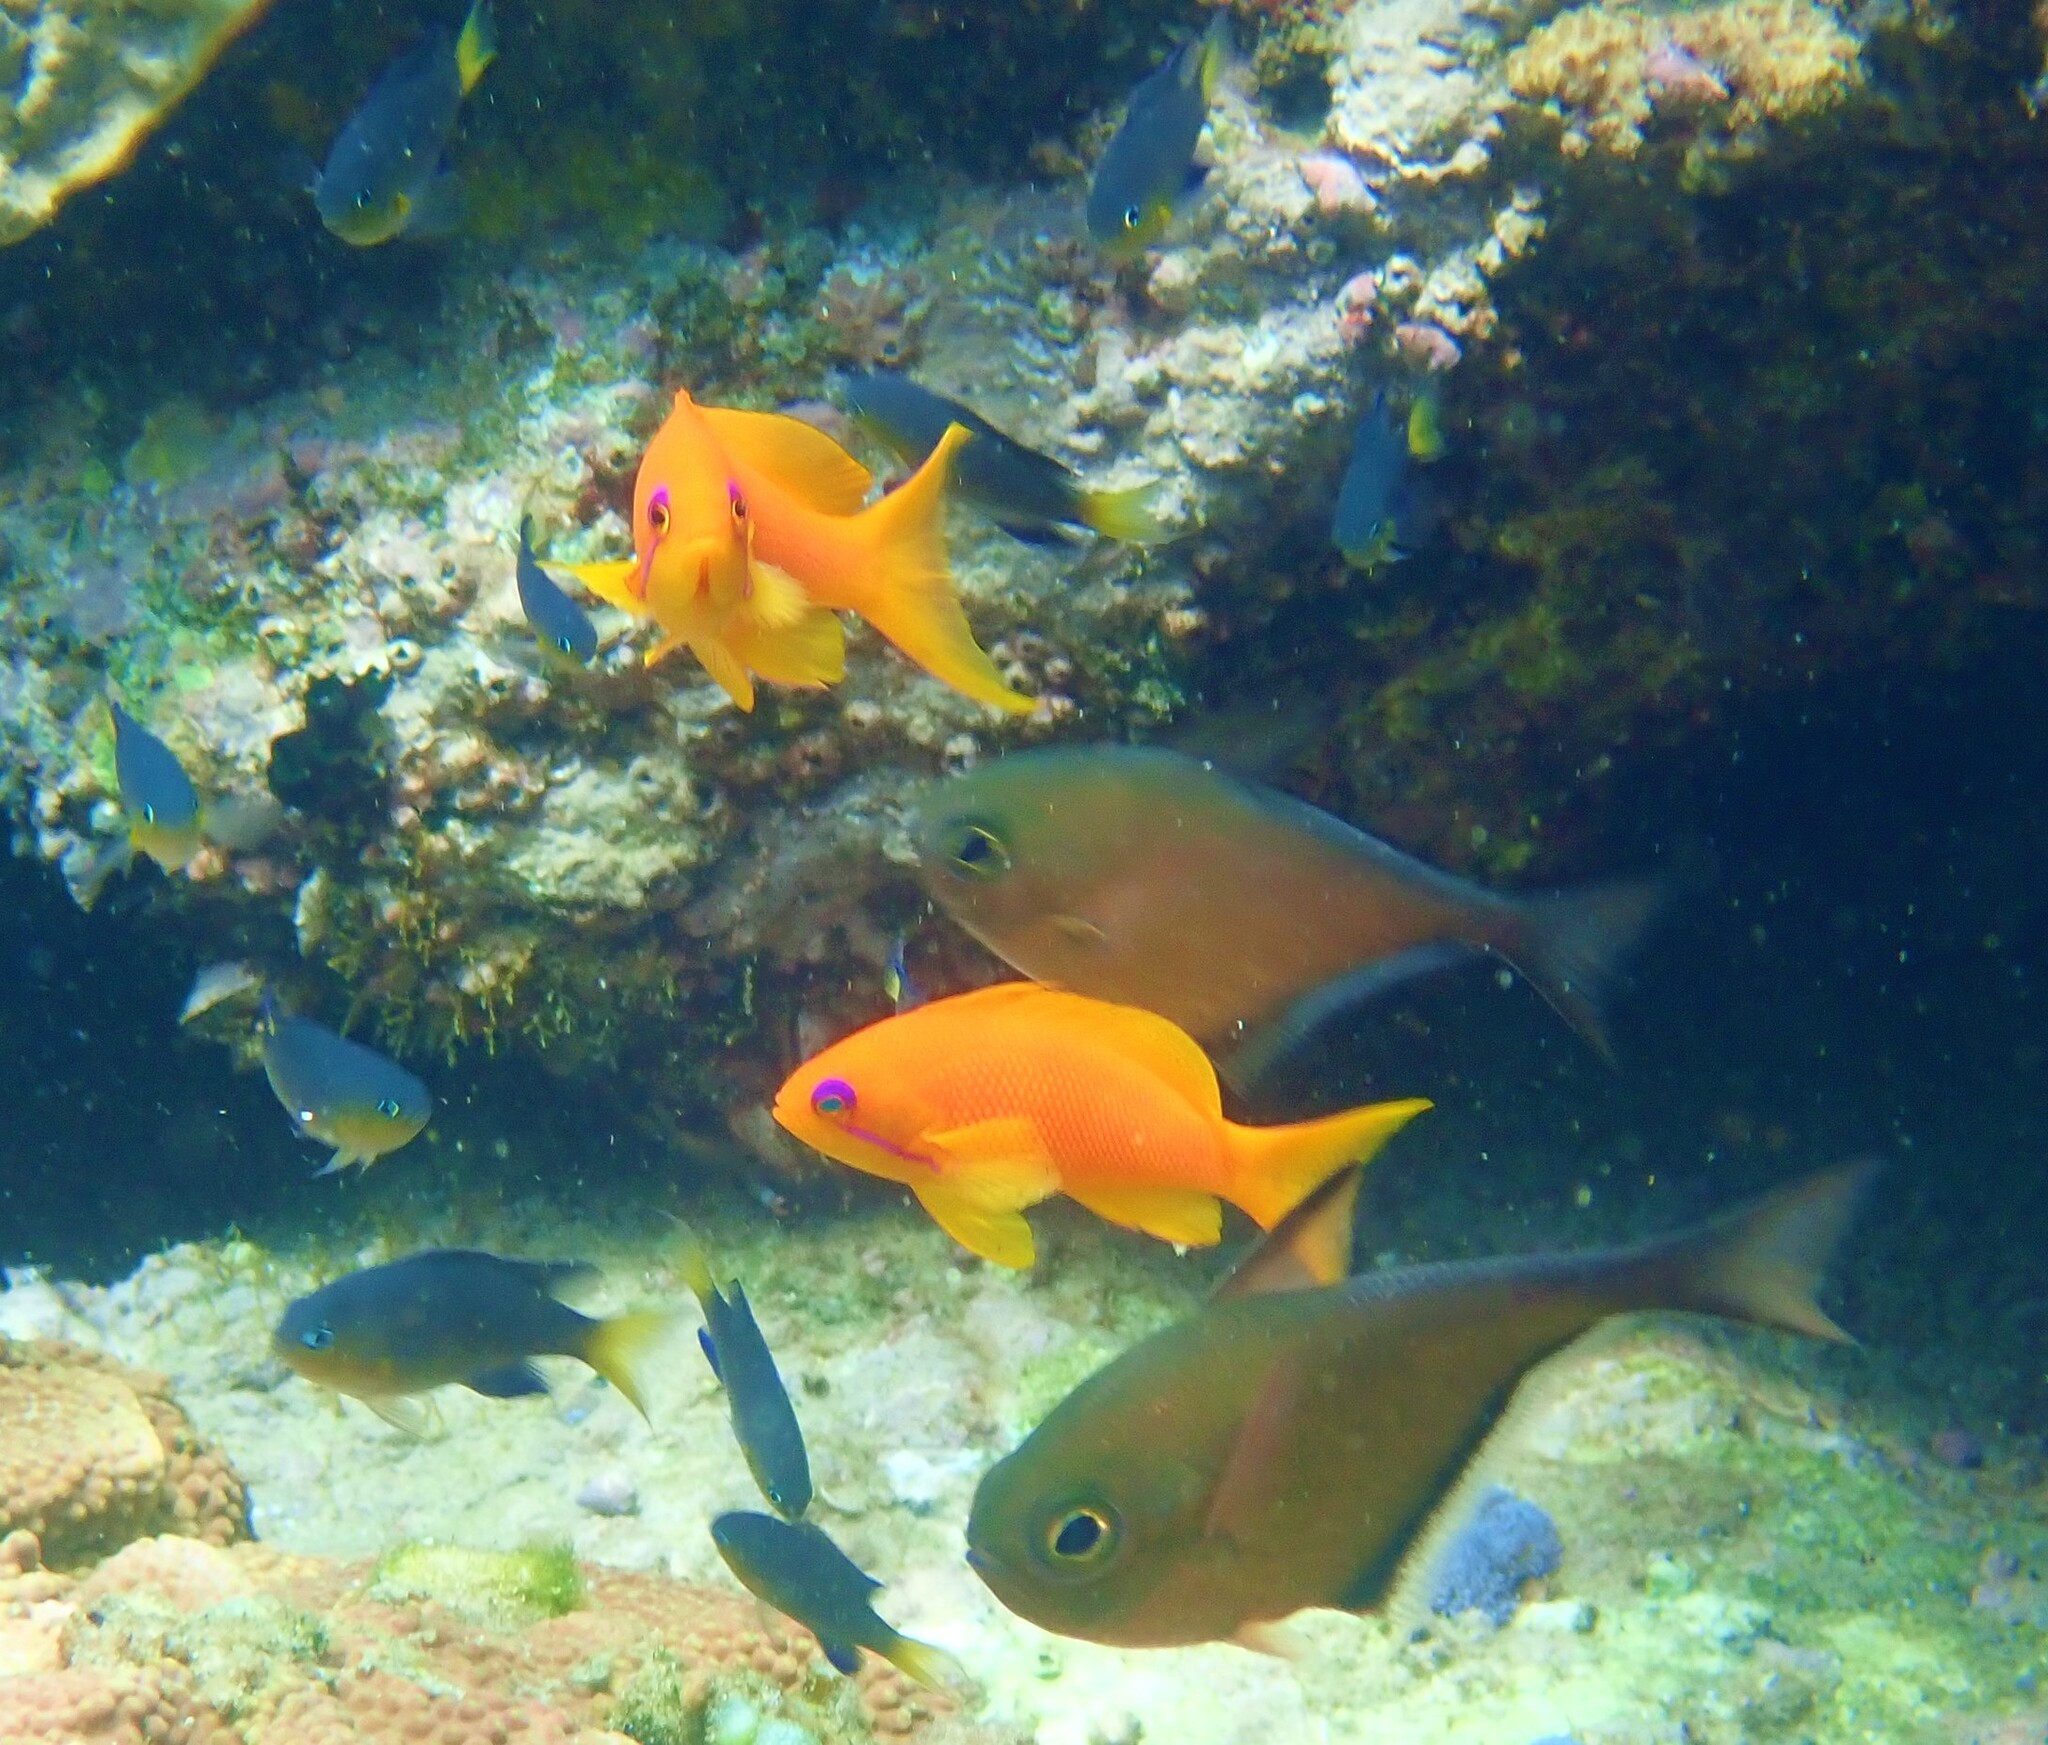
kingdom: Animalia
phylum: Chordata
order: Perciformes
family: Serranidae
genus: Pseudanthias
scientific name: Pseudanthias squamipinnis
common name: Scalefin anthias
